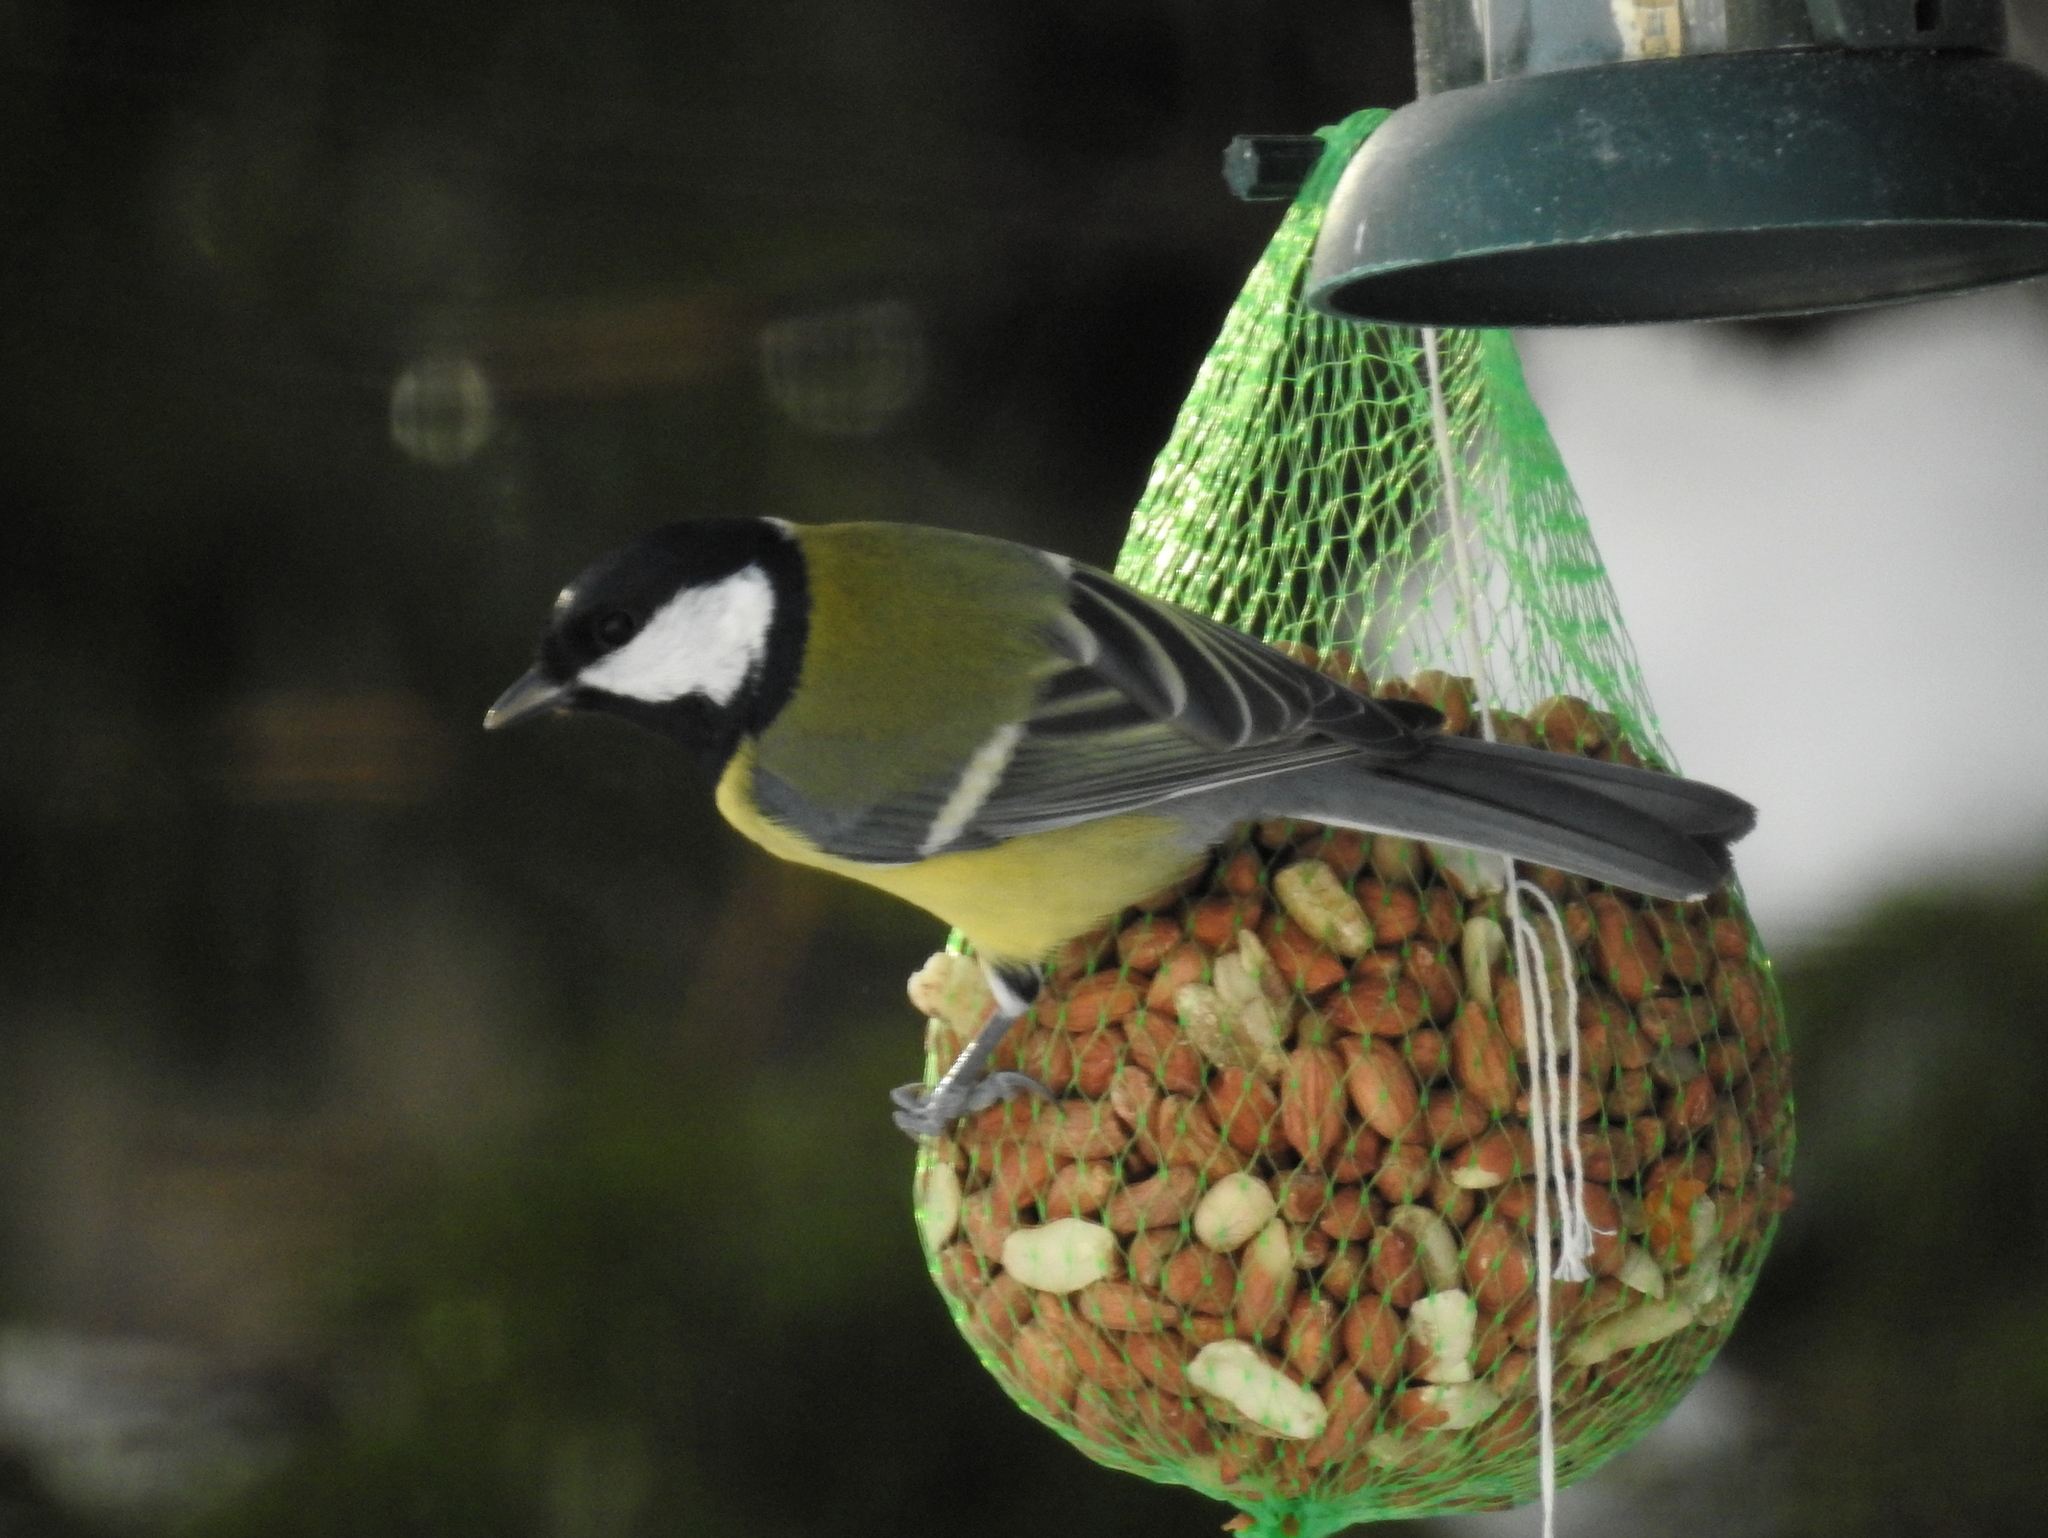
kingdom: Animalia
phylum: Chordata
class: Aves
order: Passeriformes
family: Paridae
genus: Parus
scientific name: Parus major
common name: Great tit
